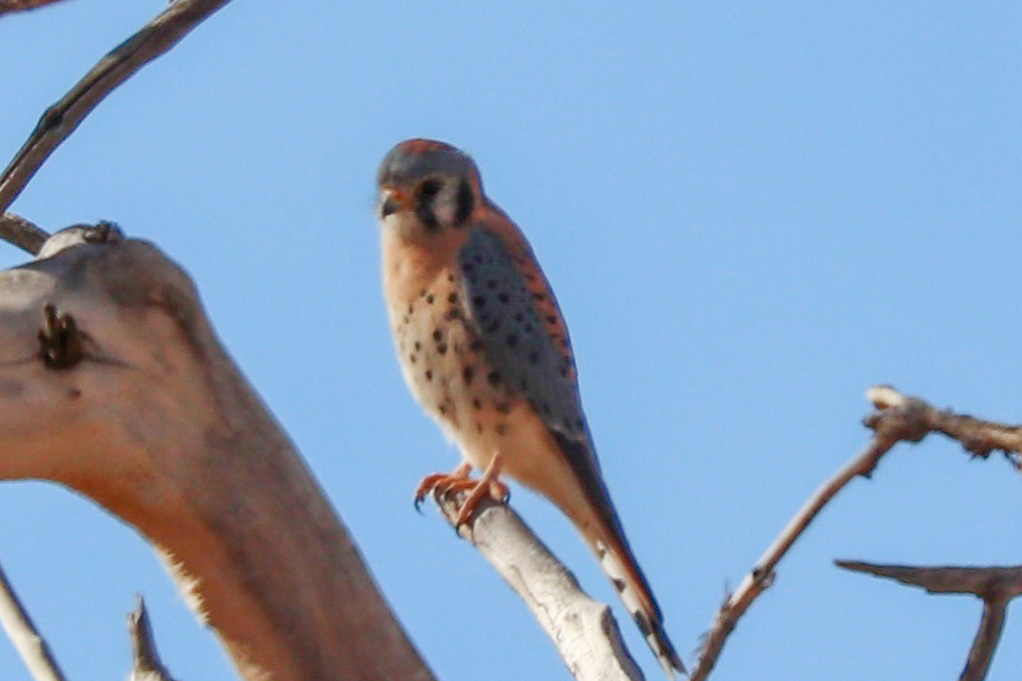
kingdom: Animalia
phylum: Chordata
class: Aves
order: Falconiformes
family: Falconidae
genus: Falco
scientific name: Falco sparverius
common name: American kestrel
